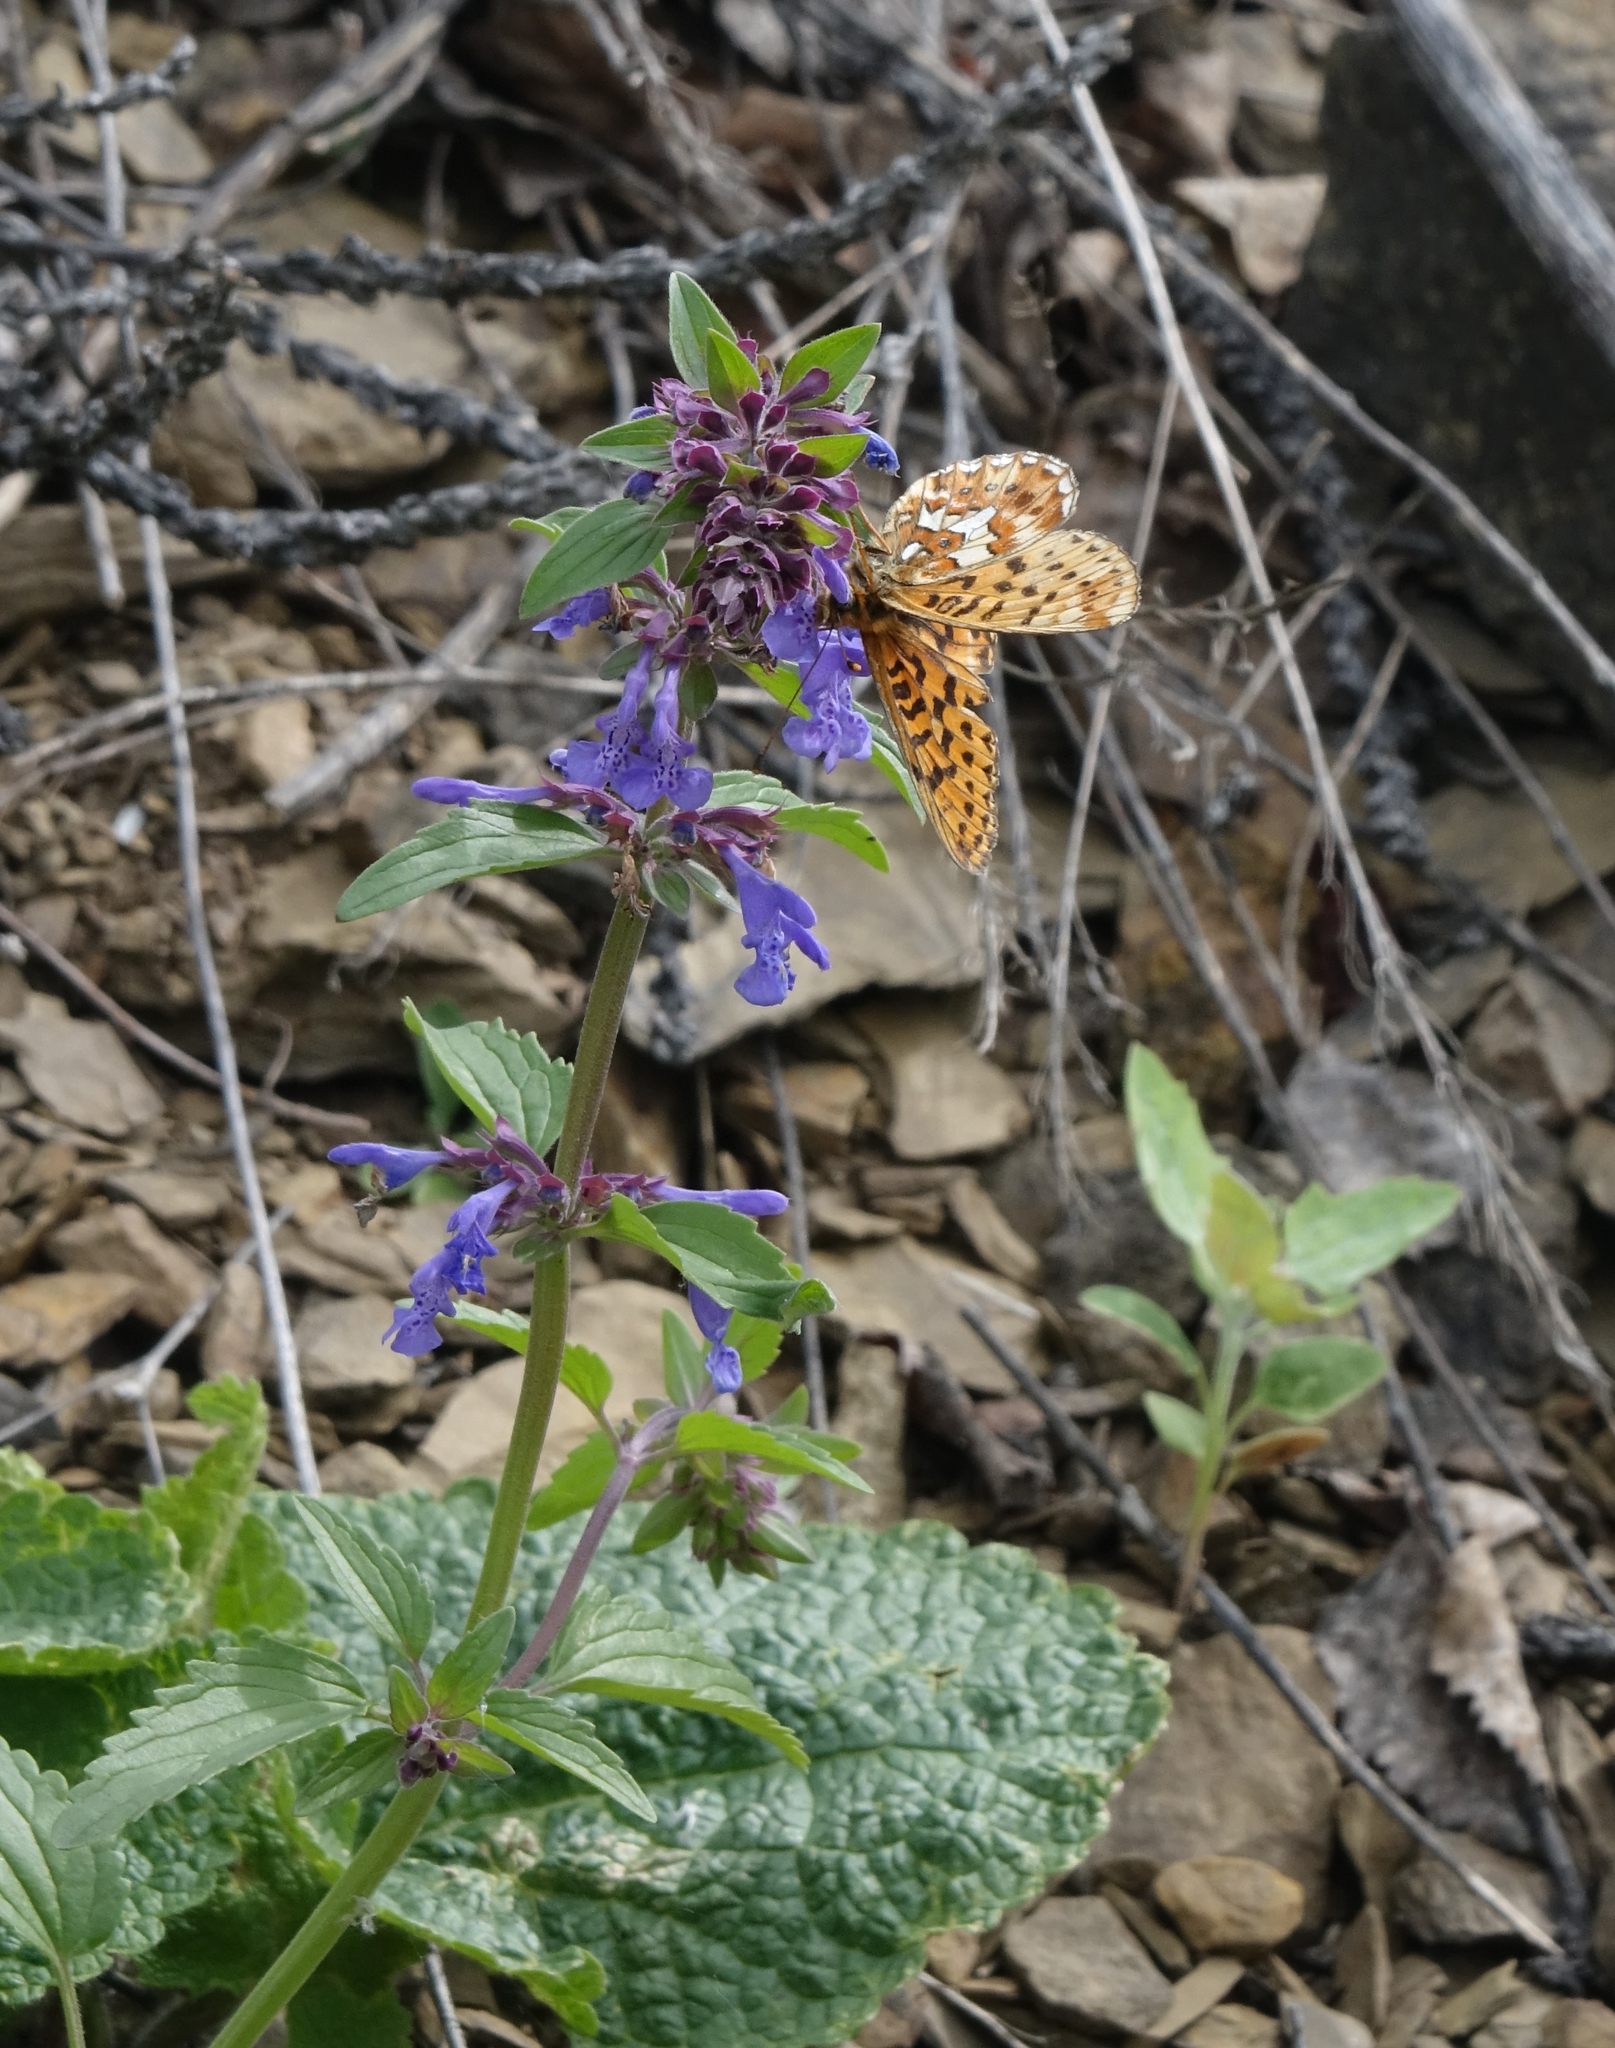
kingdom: Plantae
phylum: Tracheophyta
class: Magnoliopsida
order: Lamiales
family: Lamiaceae
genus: Dracocephalum
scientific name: Dracocephalum nutans
